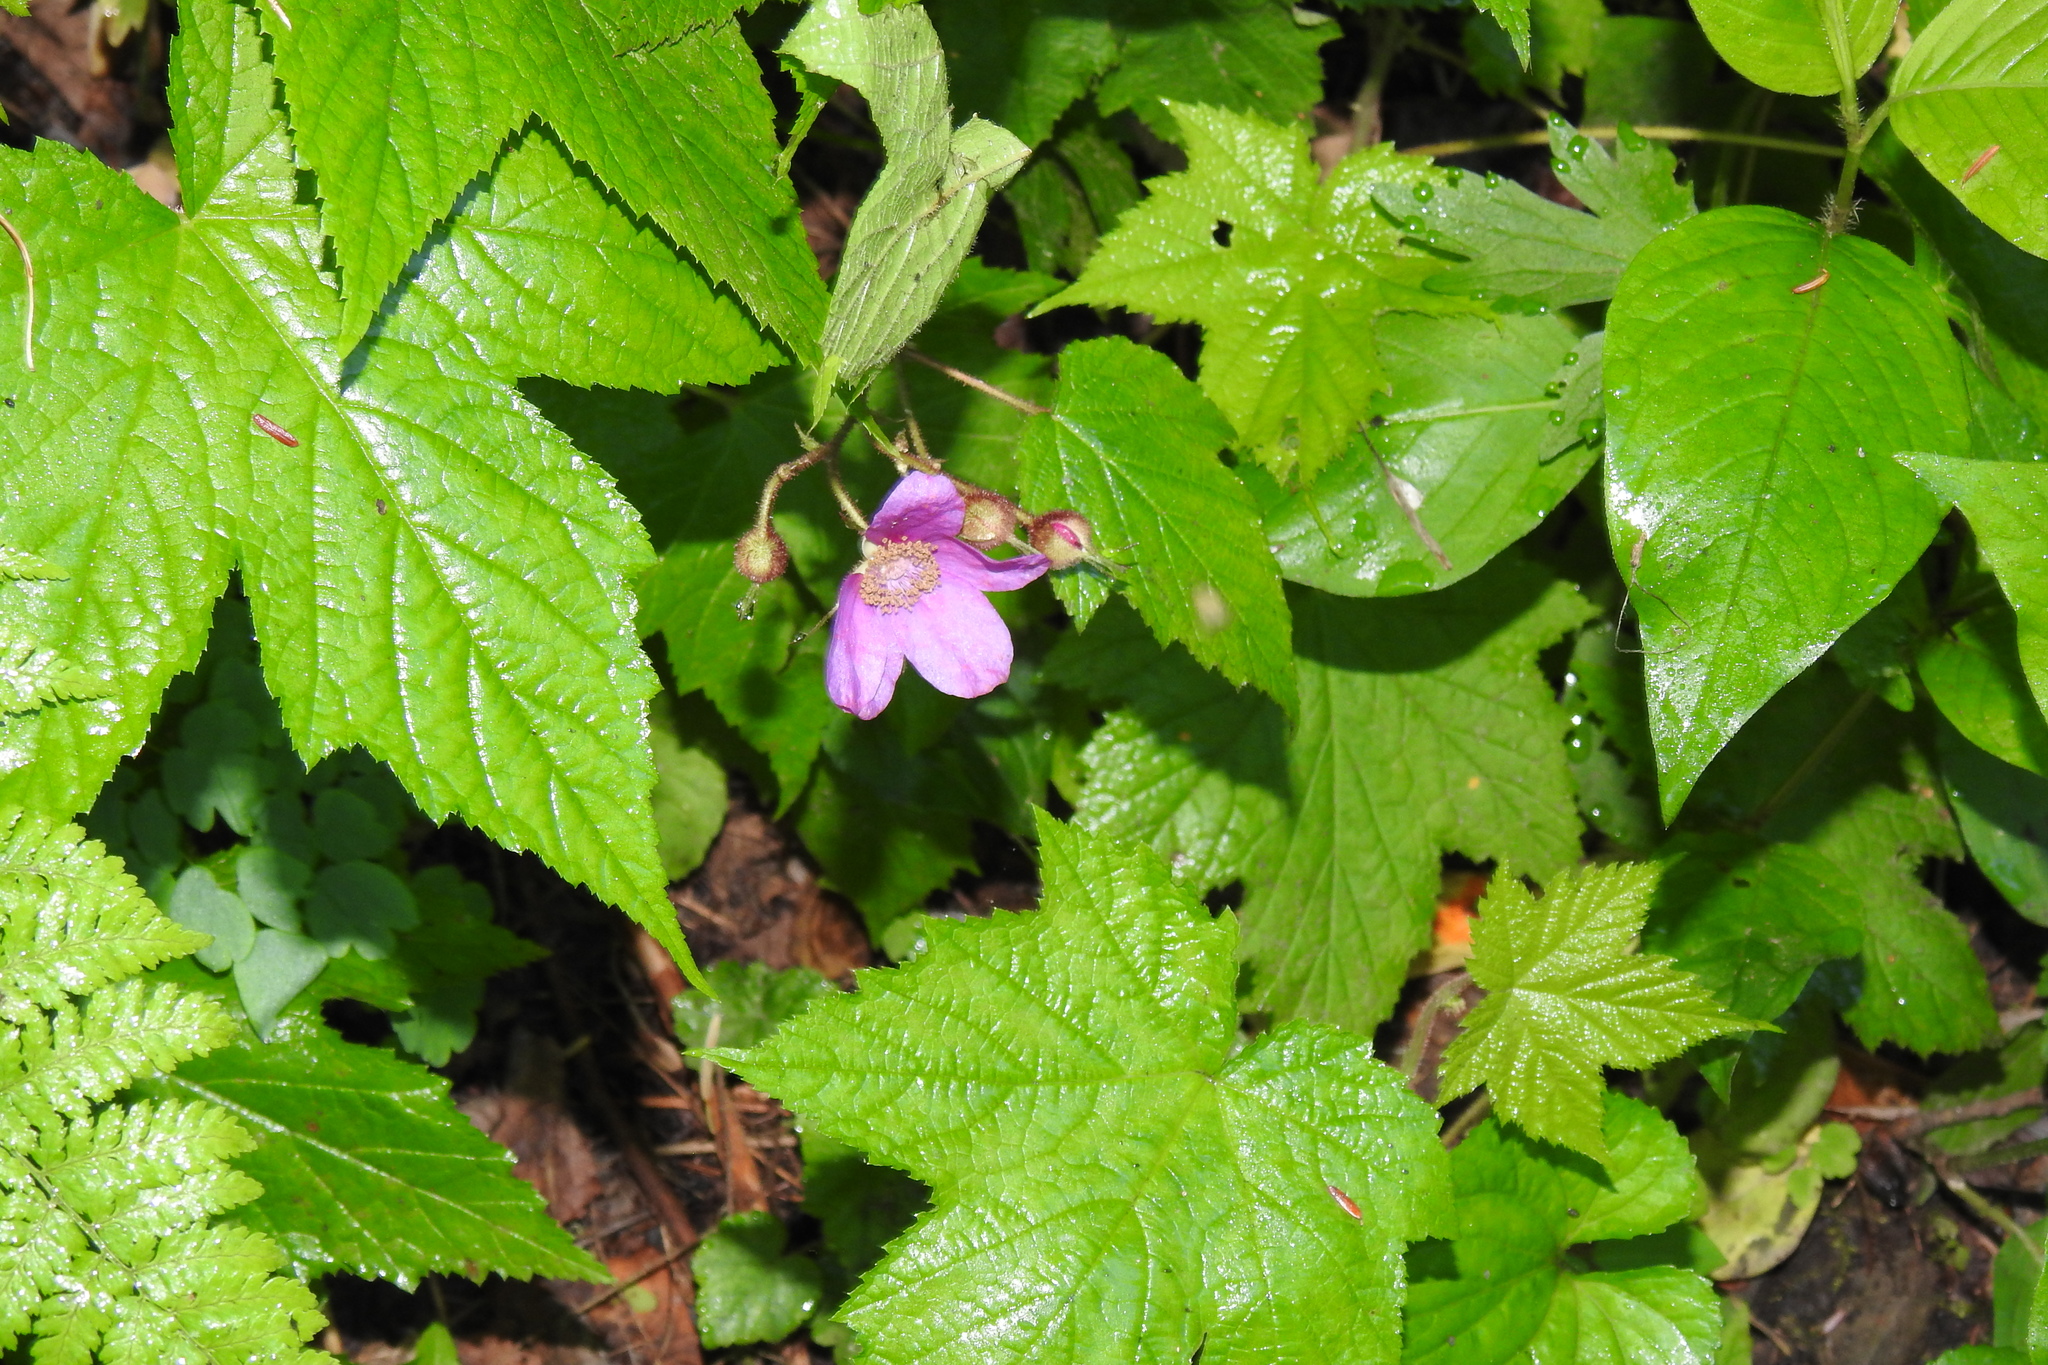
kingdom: Plantae
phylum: Tracheophyta
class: Magnoliopsida
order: Rosales
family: Rosaceae
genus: Rubus
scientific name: Rubus odoratus
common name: Purple-flowered raspberry
